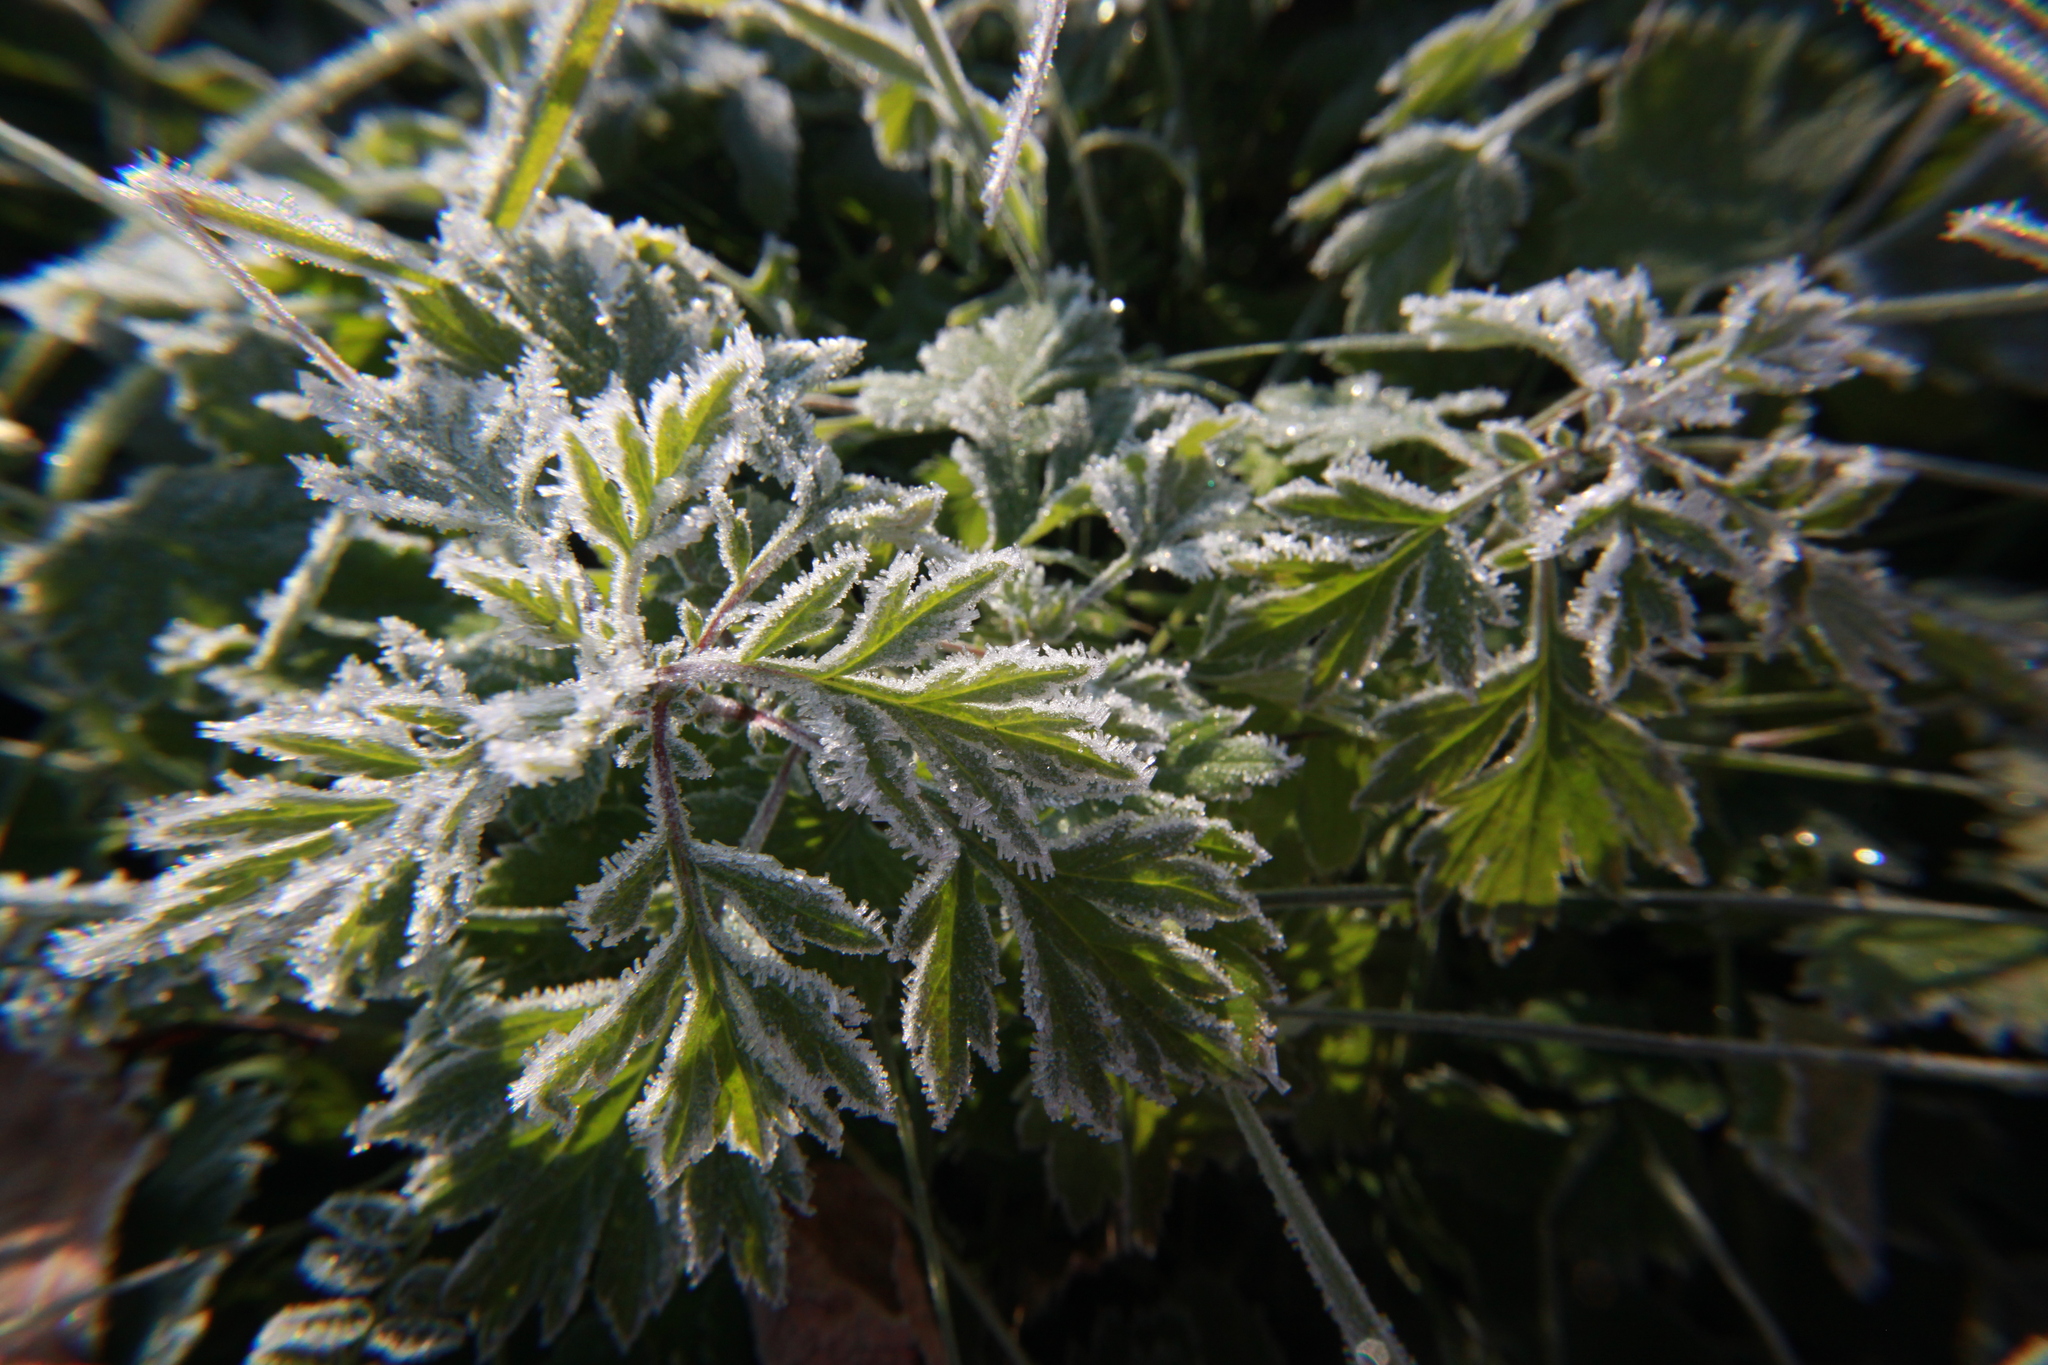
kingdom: Plantae
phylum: Tracheophyta
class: Magnoliopsida
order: Asterales
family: Asteraceae
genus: Artemisia
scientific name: Artemisia vulgaris
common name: Mugwort
